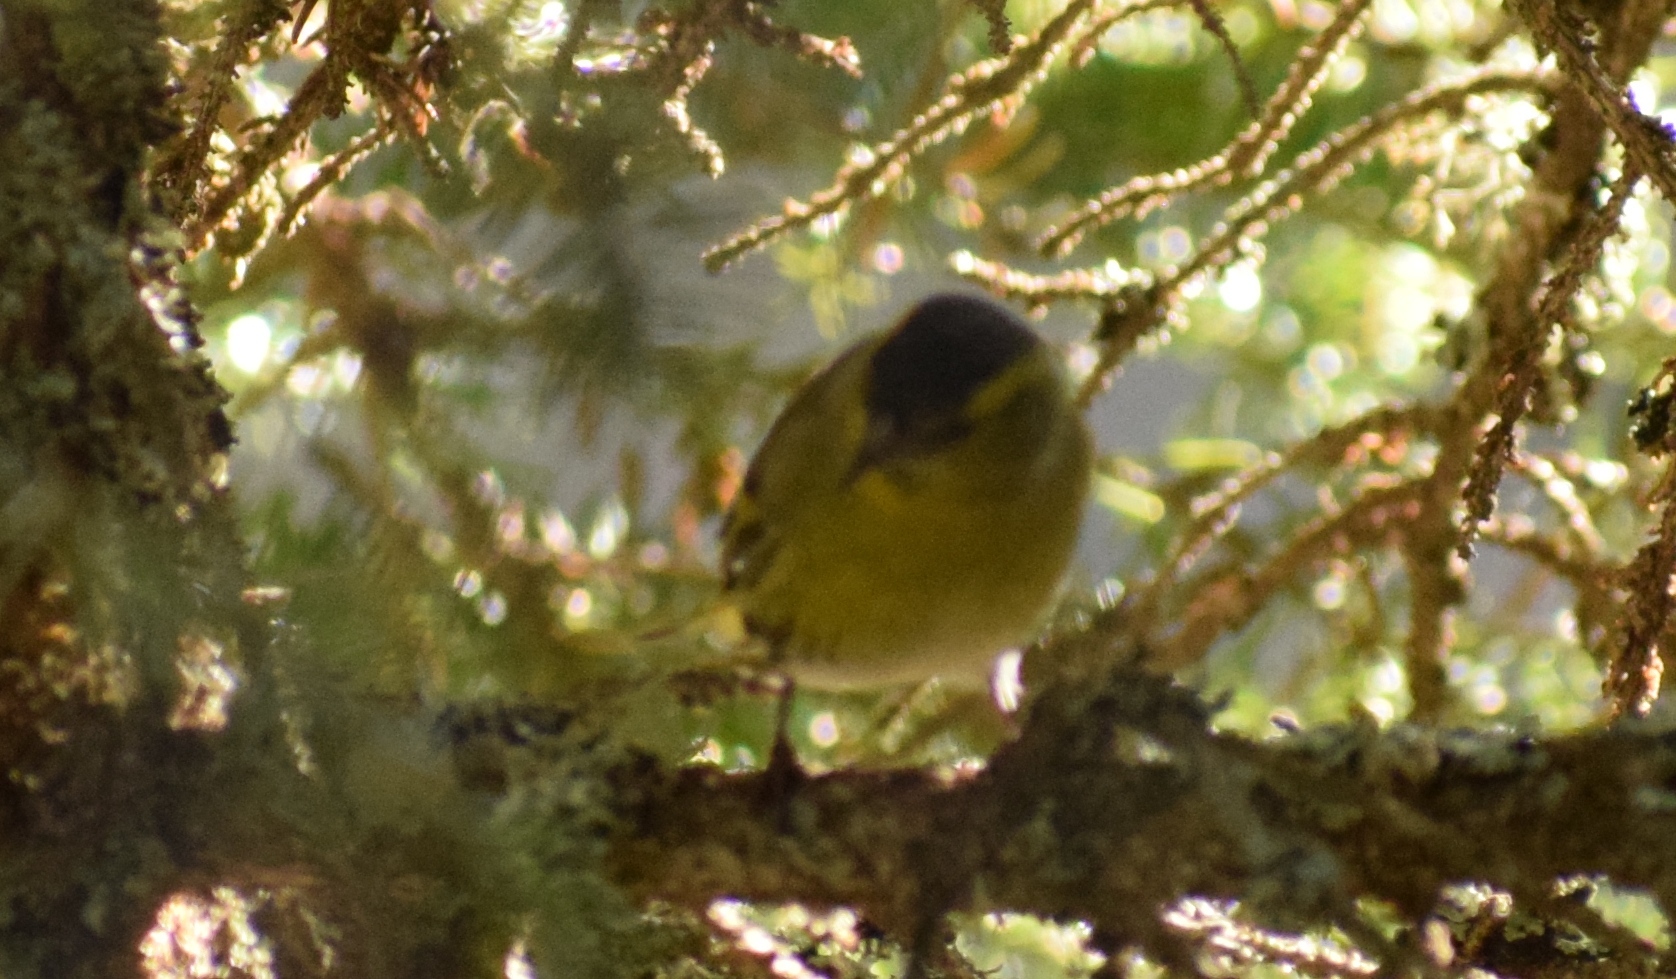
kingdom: Animalia
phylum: Chordata
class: Aves
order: Passeriformes
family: Fringillidae
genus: Spinus
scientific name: Spinus spinus
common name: Eurasian siskin
